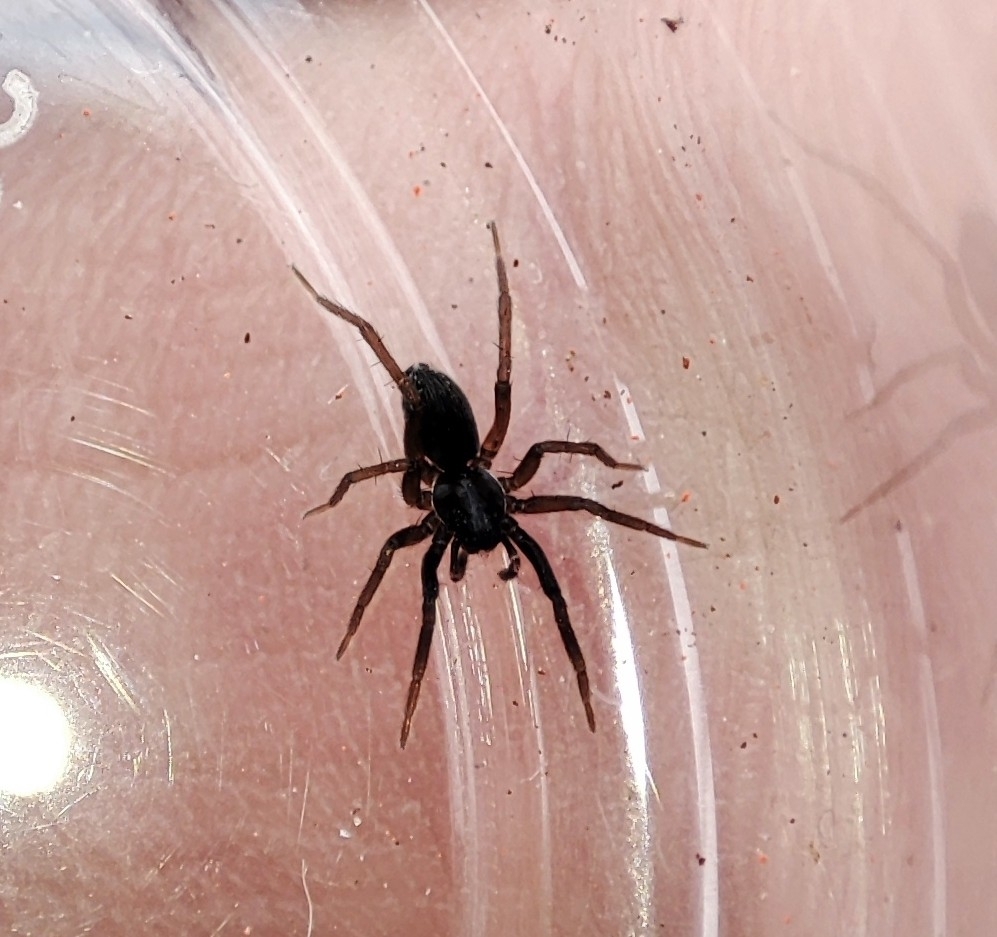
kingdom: Animalia
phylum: Arthropoda
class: Arachnida
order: Araneae
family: Lycosidae
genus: Aulonia
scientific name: Aulonia albimana
